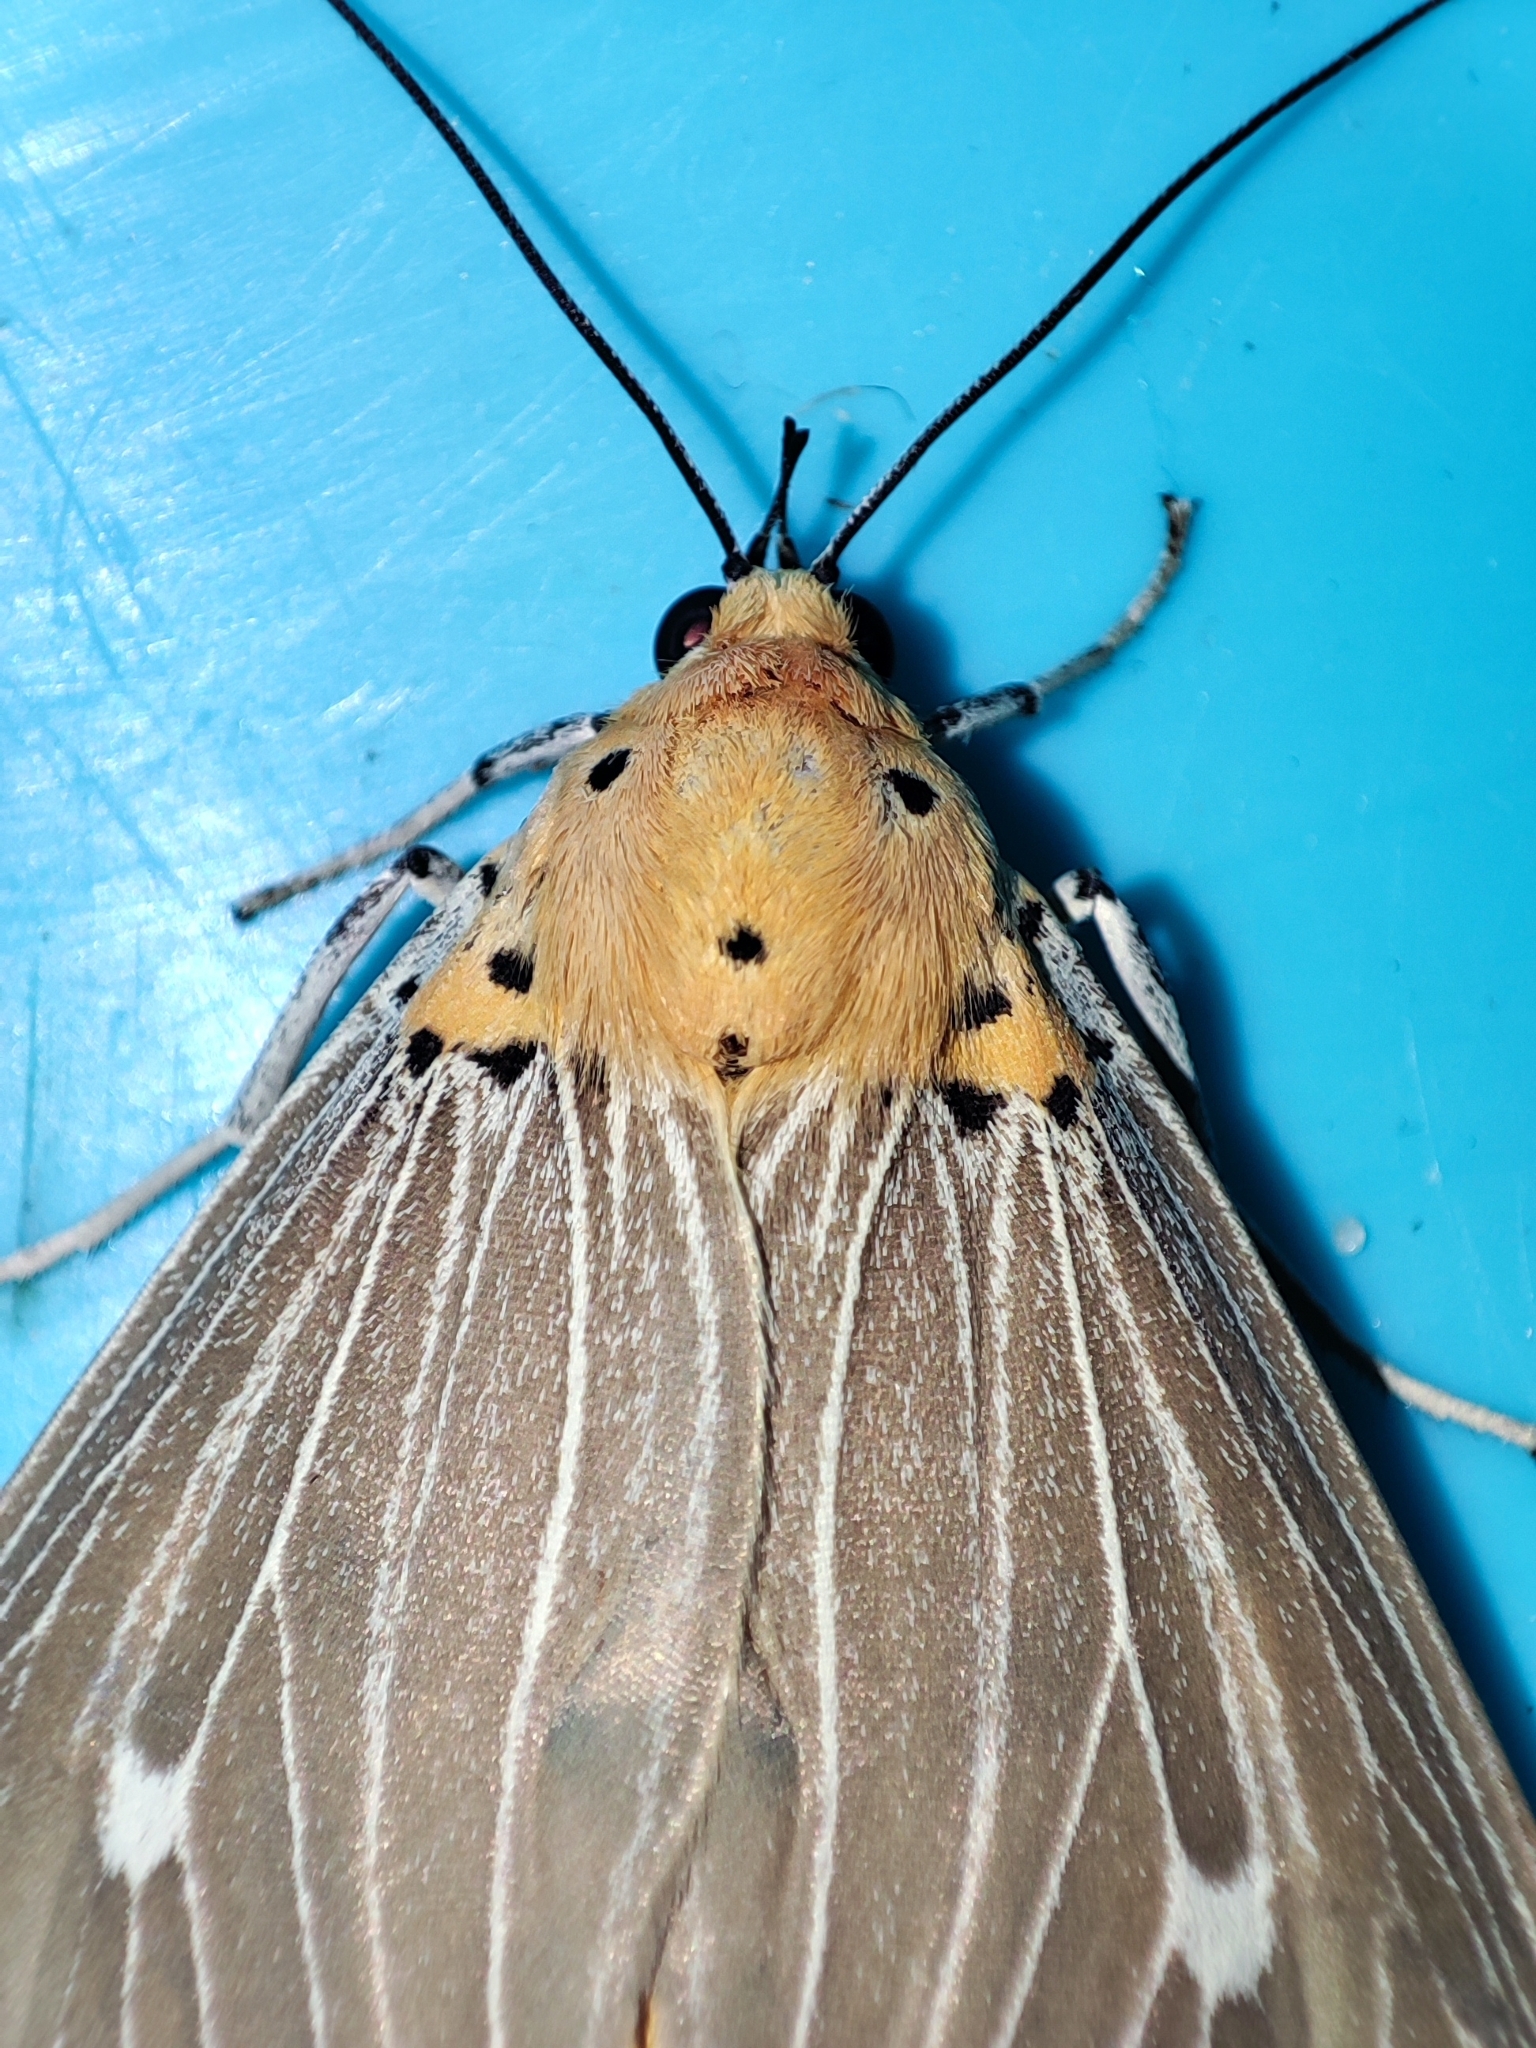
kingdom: Animalia
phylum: Arthropoda
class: Insecta
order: Lepidoptera
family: Erebidae
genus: Asota
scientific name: Asota caricae
